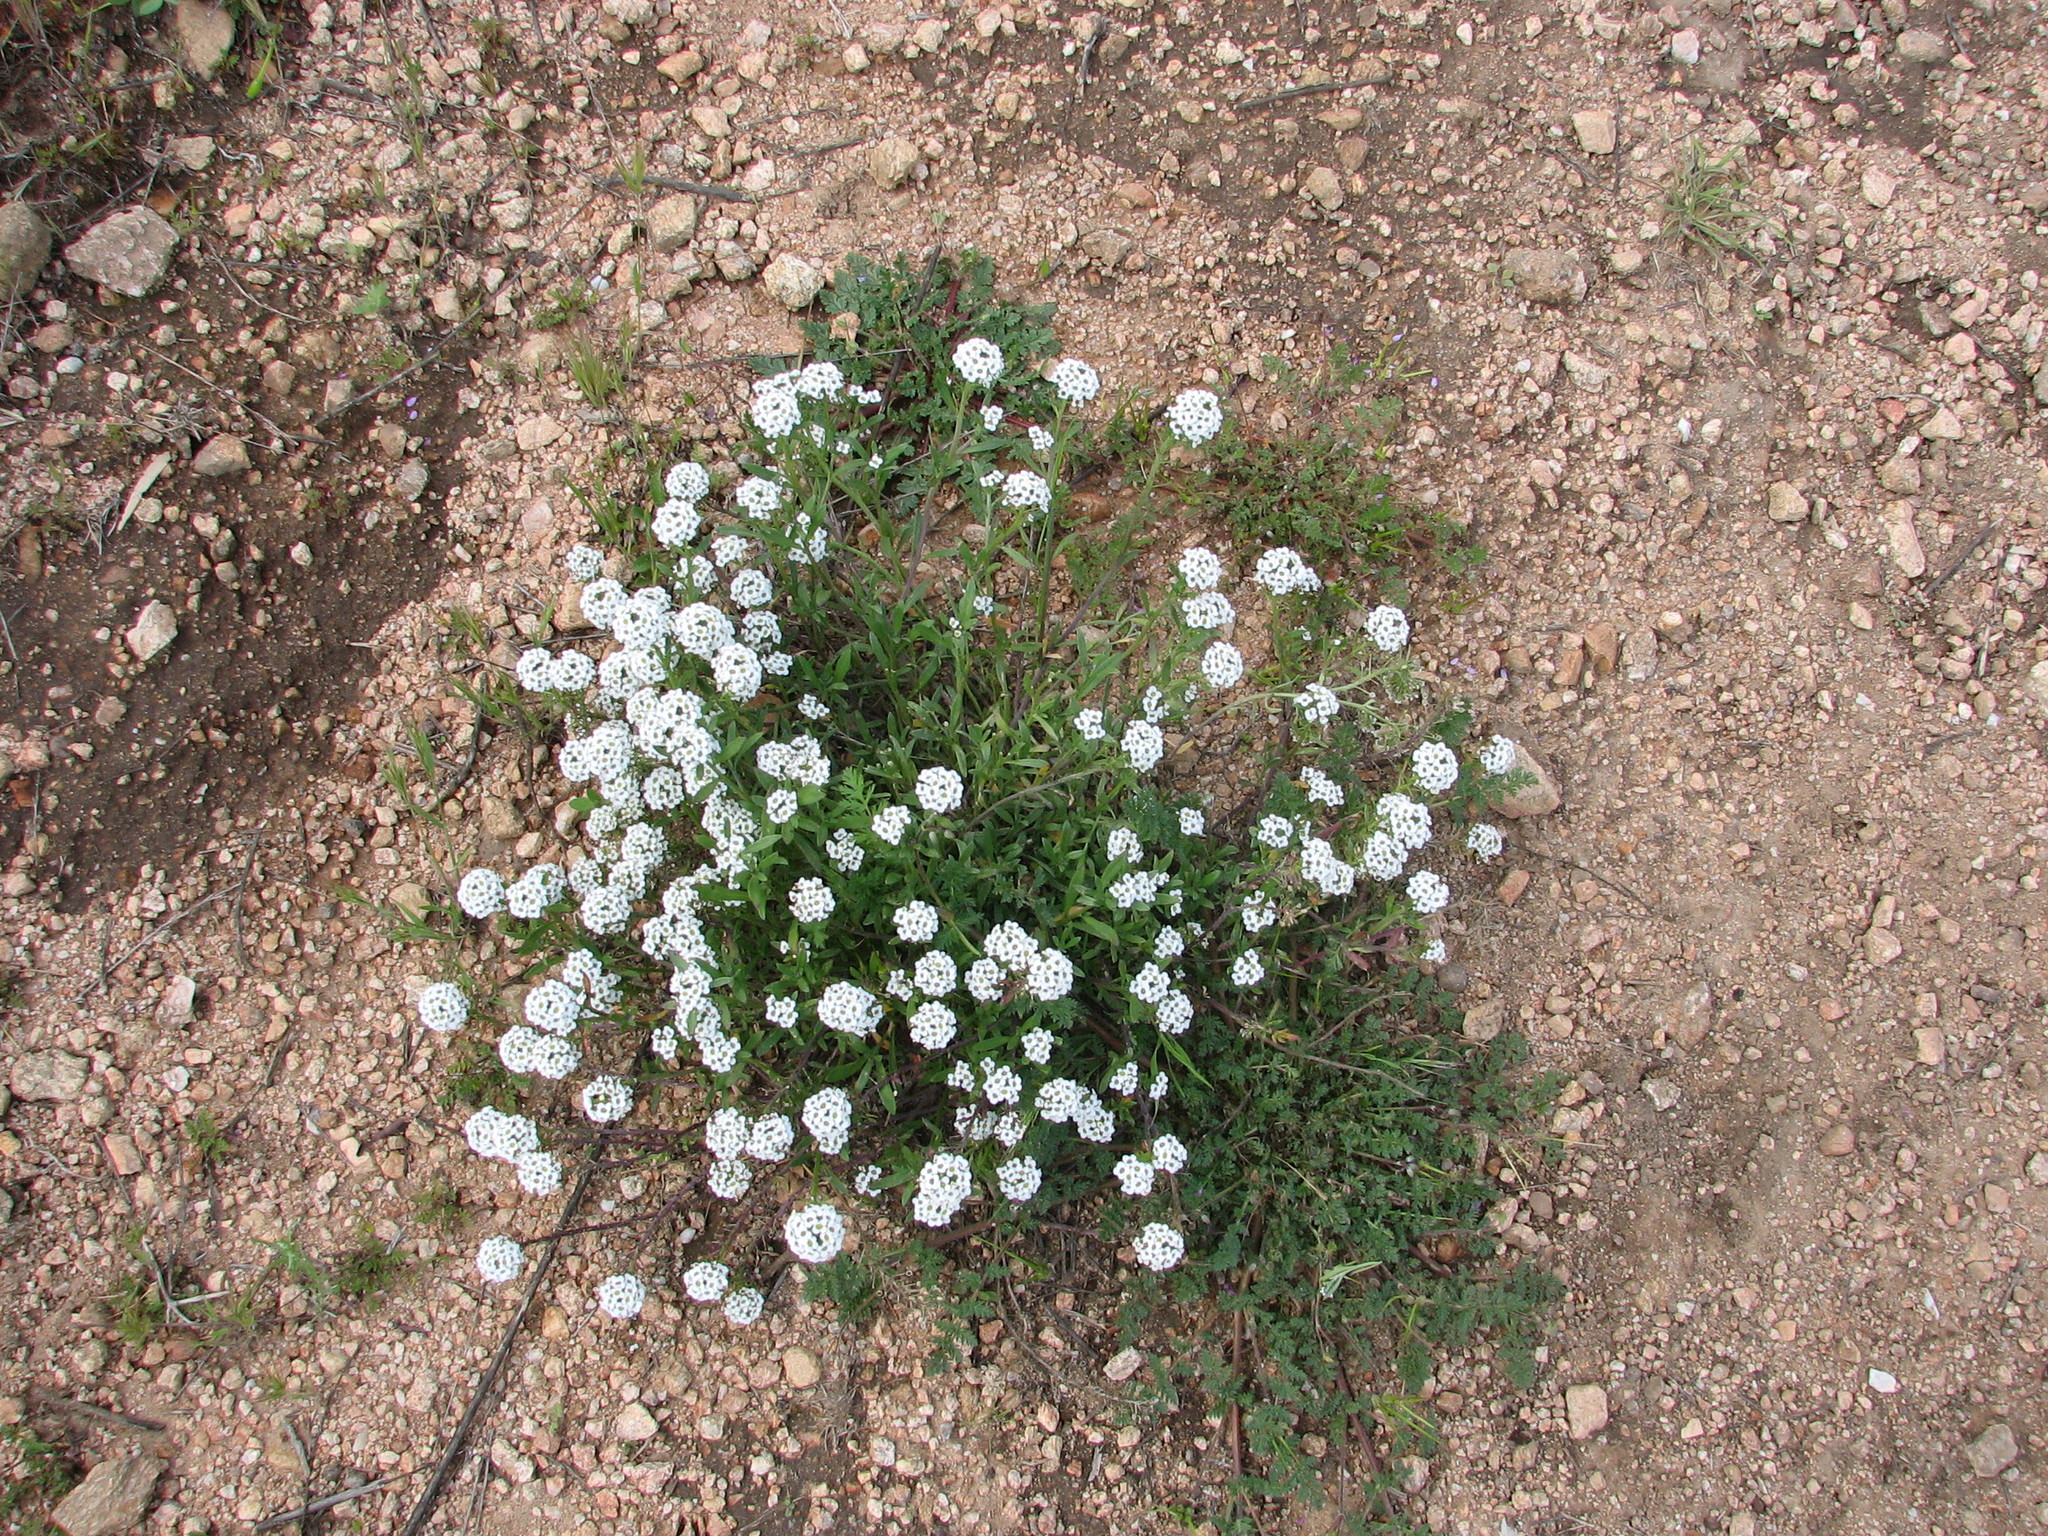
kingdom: Plantae
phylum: Tracheophyta
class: Magnoliopsida
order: Brassicales
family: Brassicaceae
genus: Lobularia
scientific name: Lobularia maritima
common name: Sweet alison
